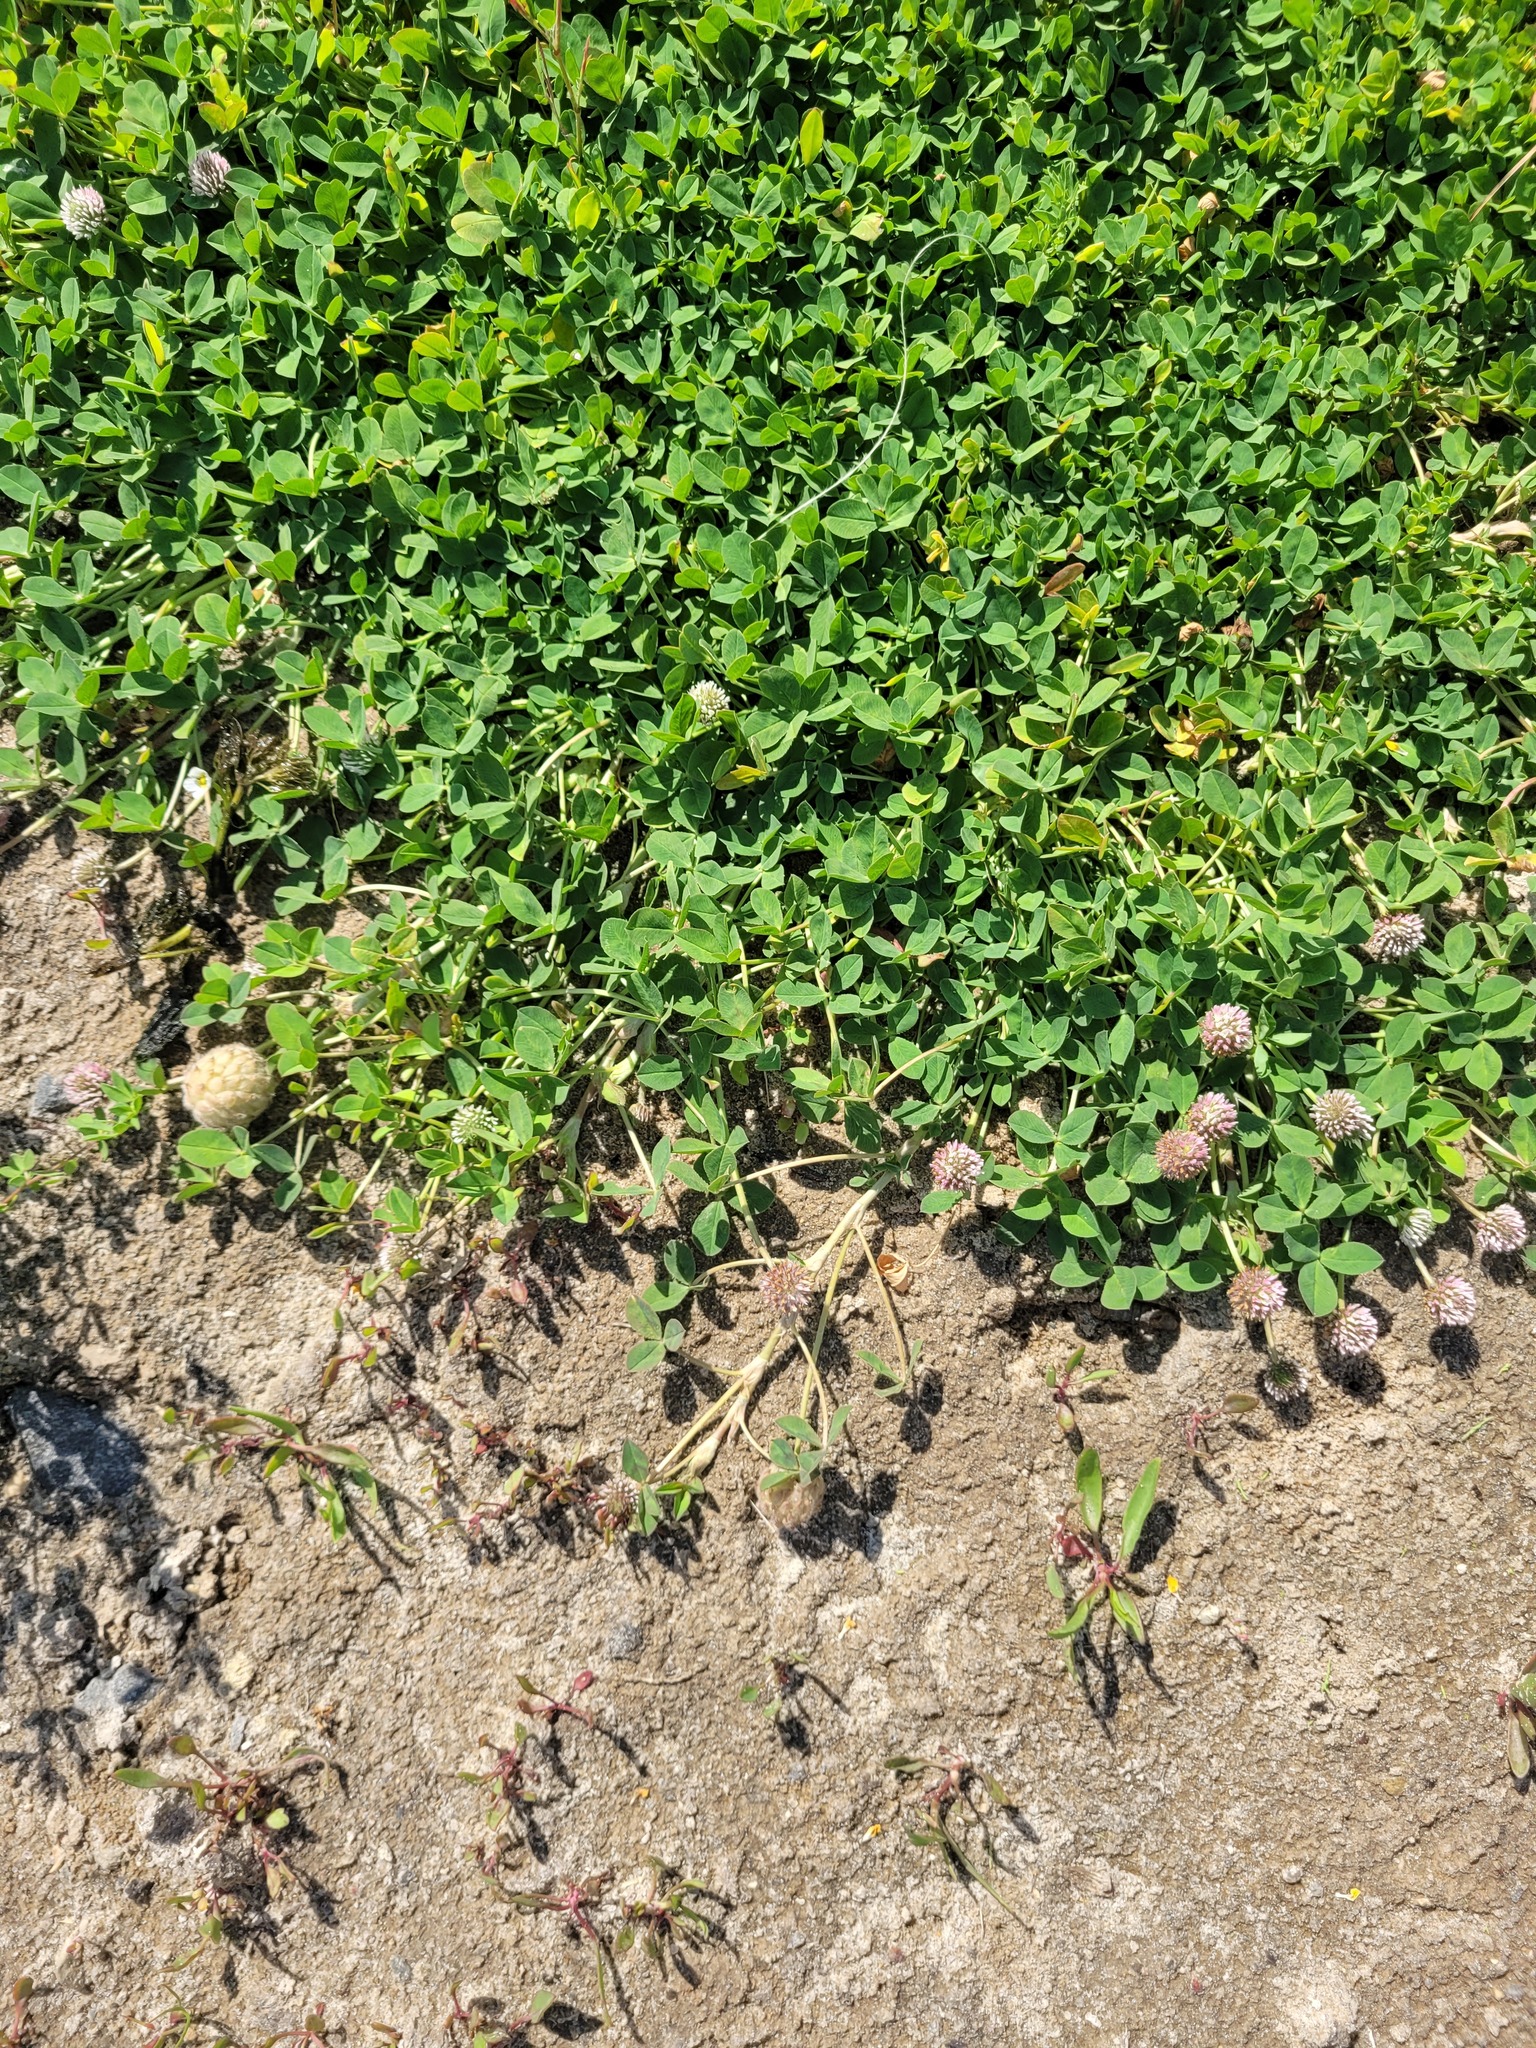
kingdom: Plantae
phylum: Tracheophyta
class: Magnoliopsida
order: Fabales
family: Fabaceae
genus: Trifolium
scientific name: Trifolium fragiferum
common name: Strawberry clover
